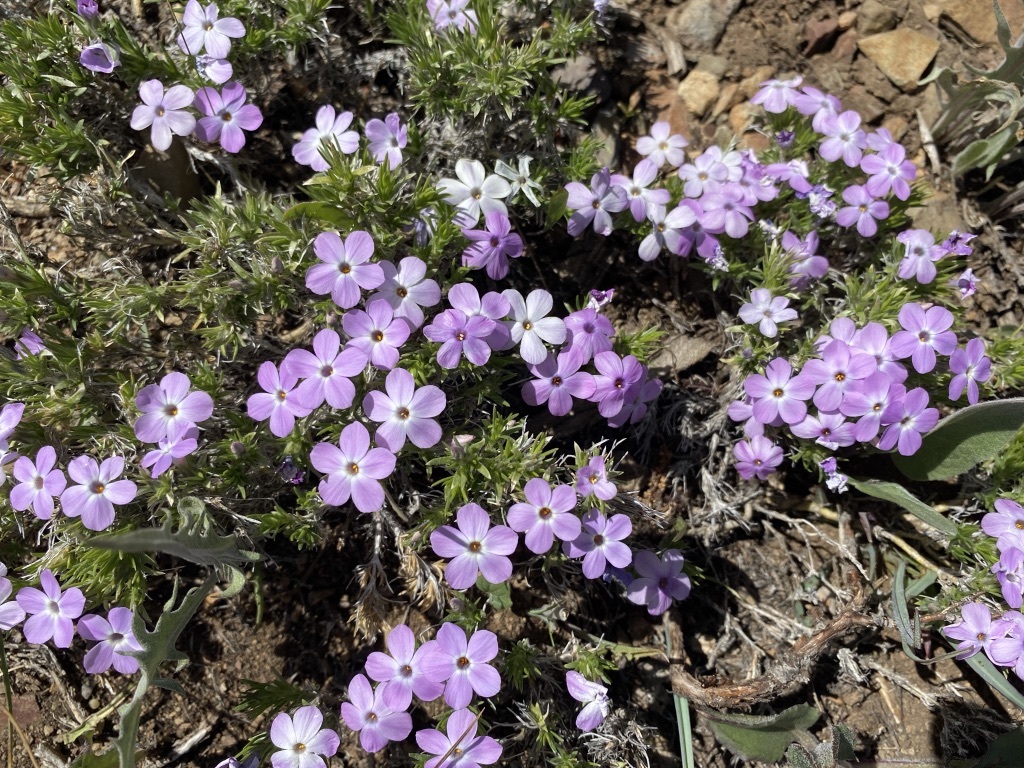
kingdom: Plantae
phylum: Tracheophyta
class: Magnoliopsida
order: Ericales
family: Polemoniaceae
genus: Phlox
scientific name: Phlox diffusa
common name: Mat phlox
